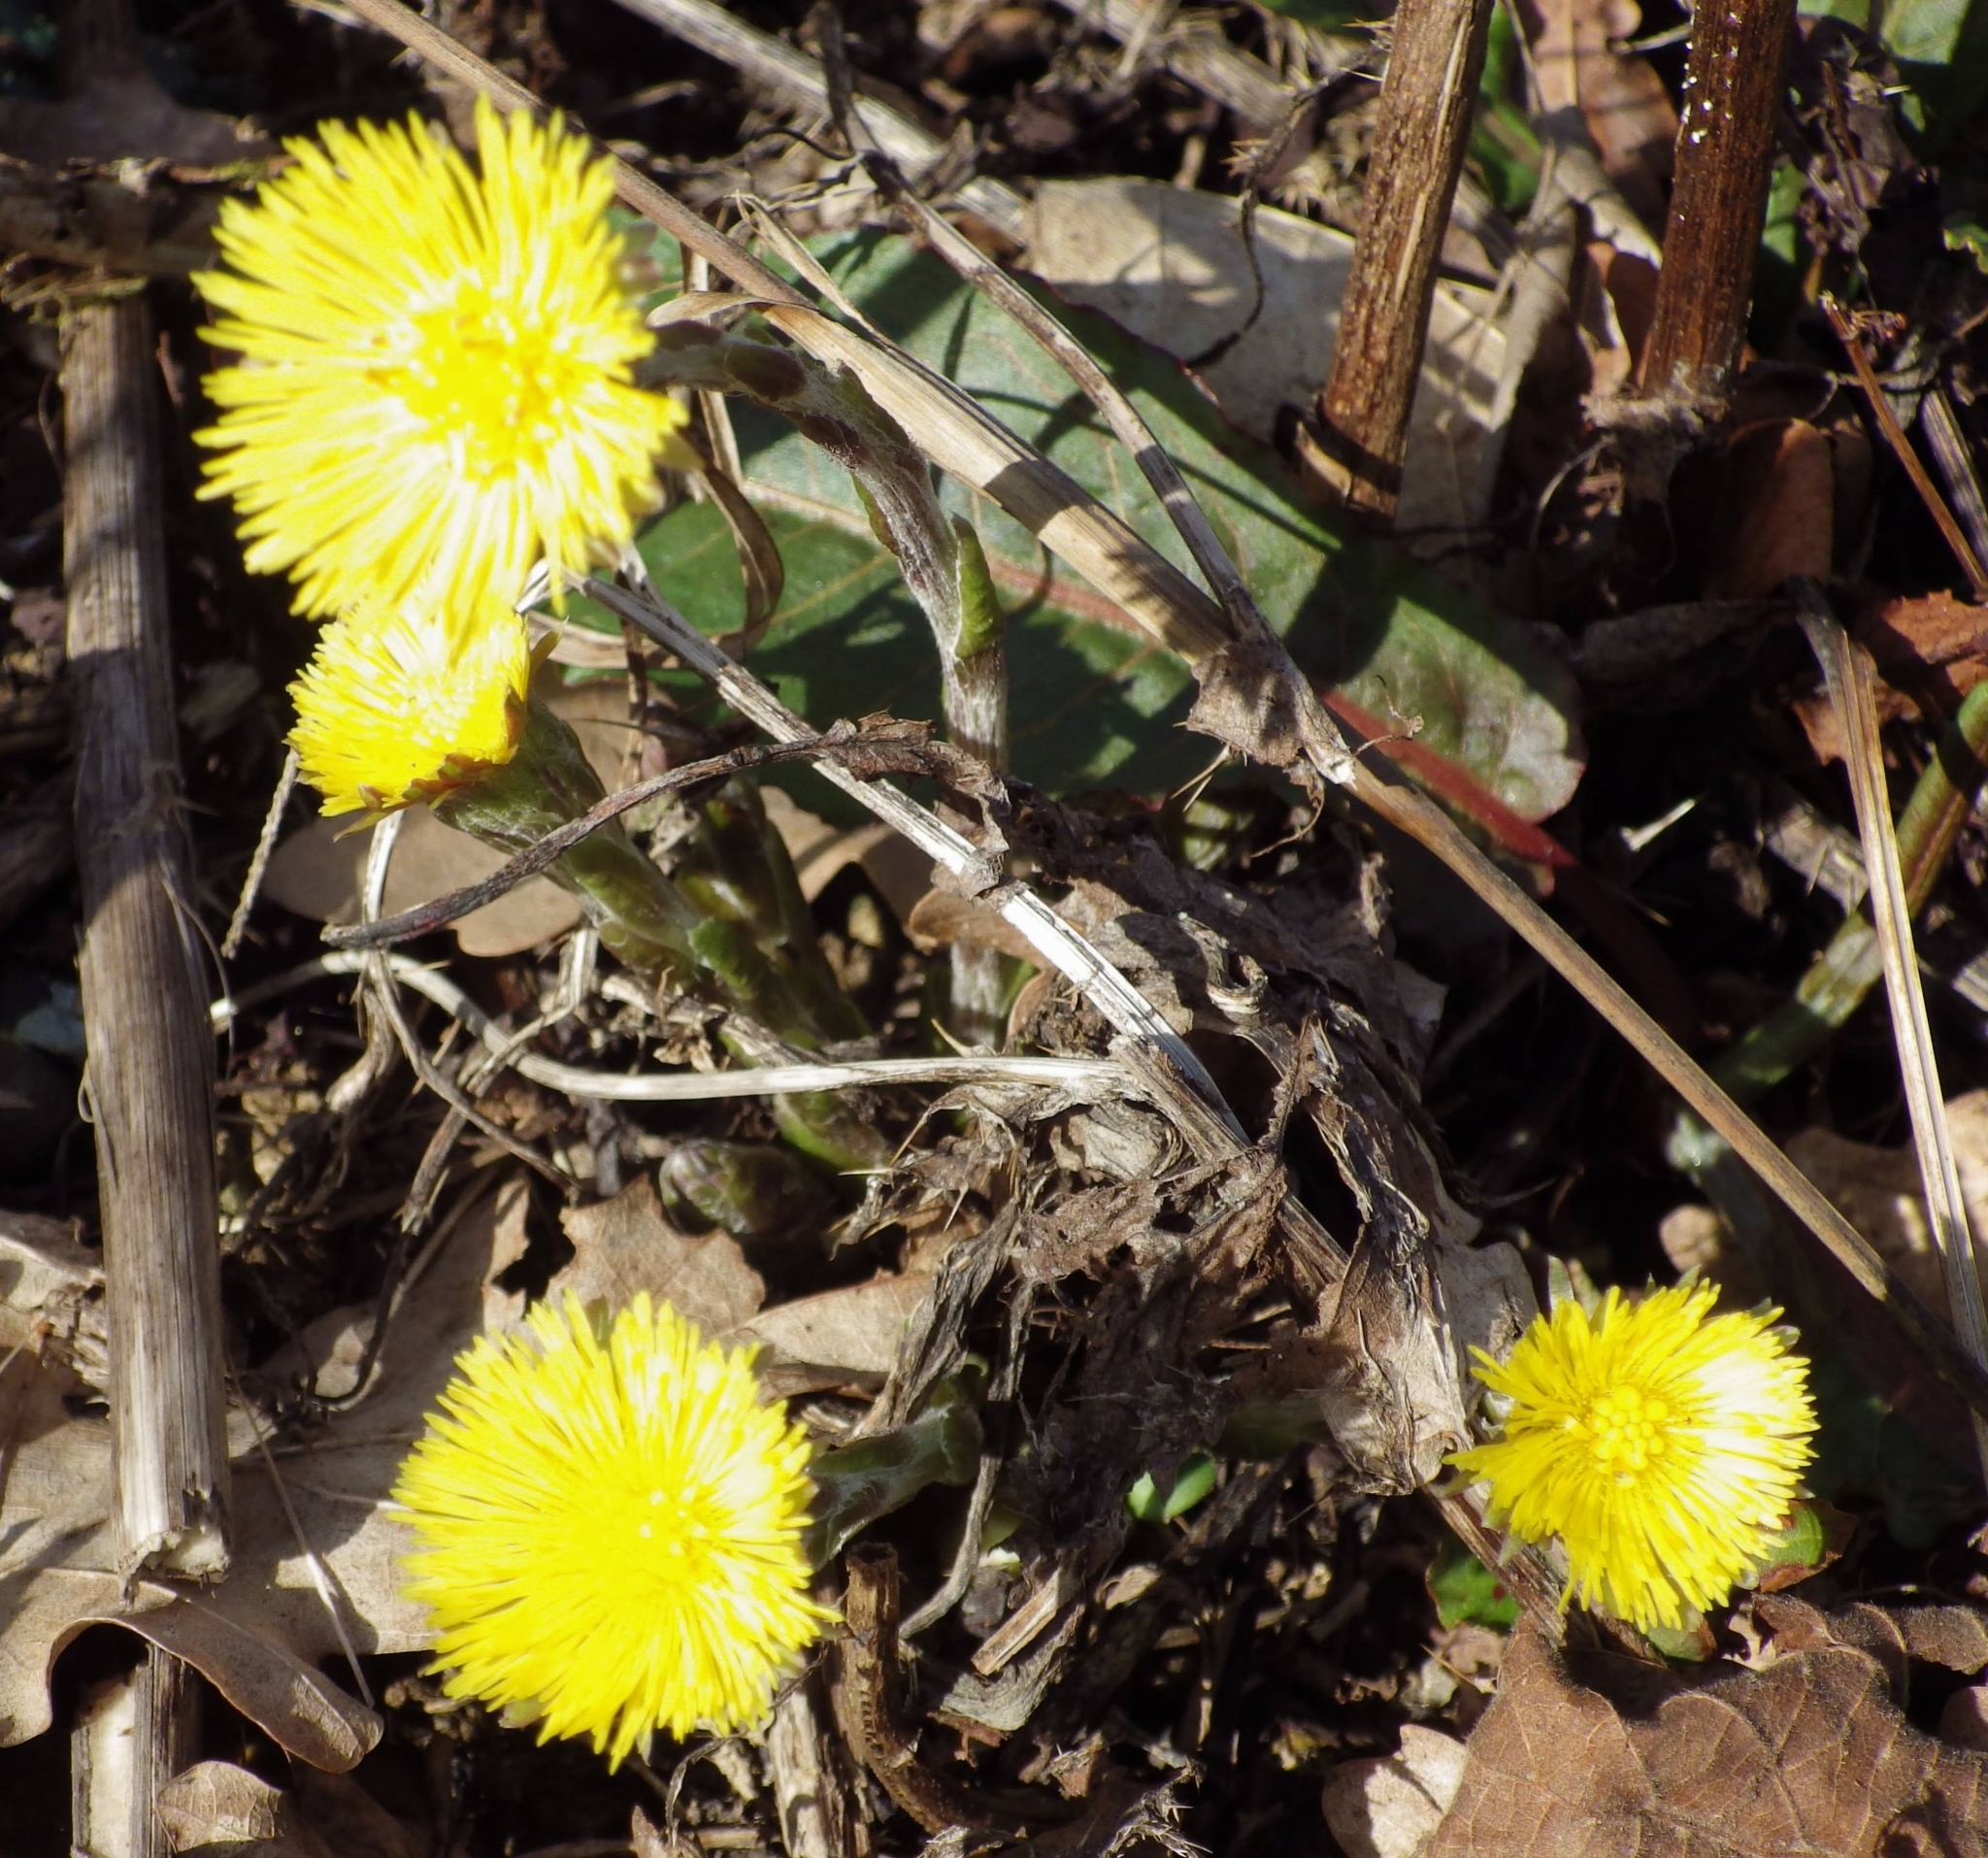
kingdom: Plantae
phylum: Tracheophyta
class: Magnoliopsida
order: Asterales
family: Asteraceae
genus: Tussilago
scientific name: Tussilago farfara
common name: Coltsfoot
